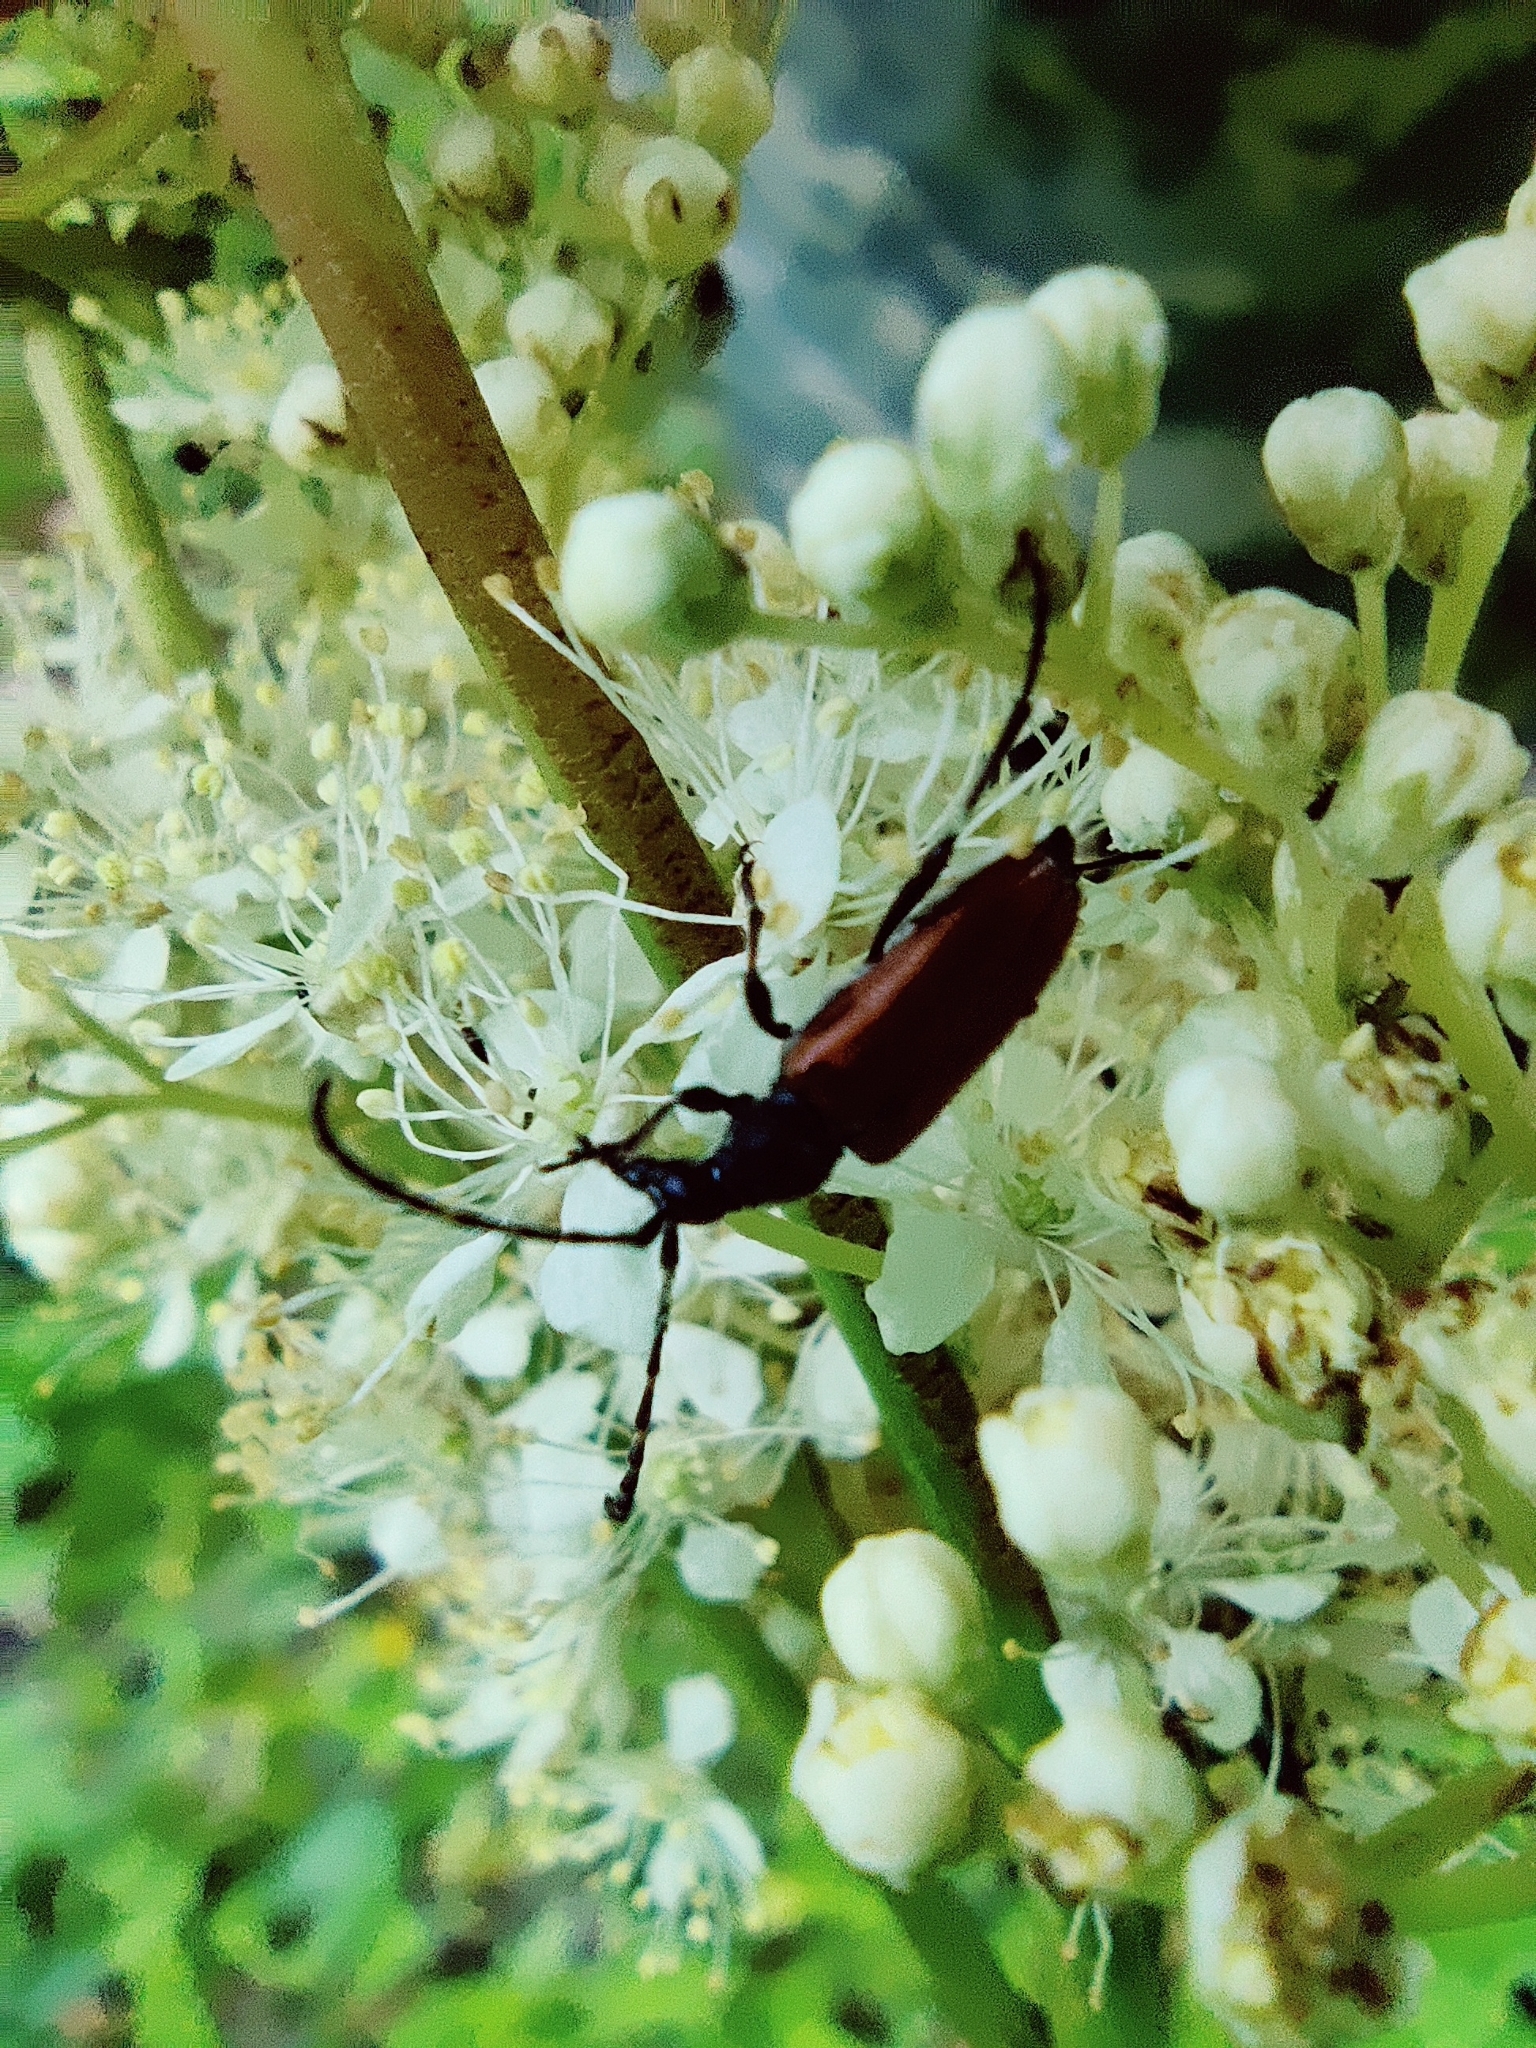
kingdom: Animalia
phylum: Arthropoda
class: Insecta
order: Coleoptera
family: Cerambycidae
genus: Paracorymbia
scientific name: Paracorymbia maculicornis
